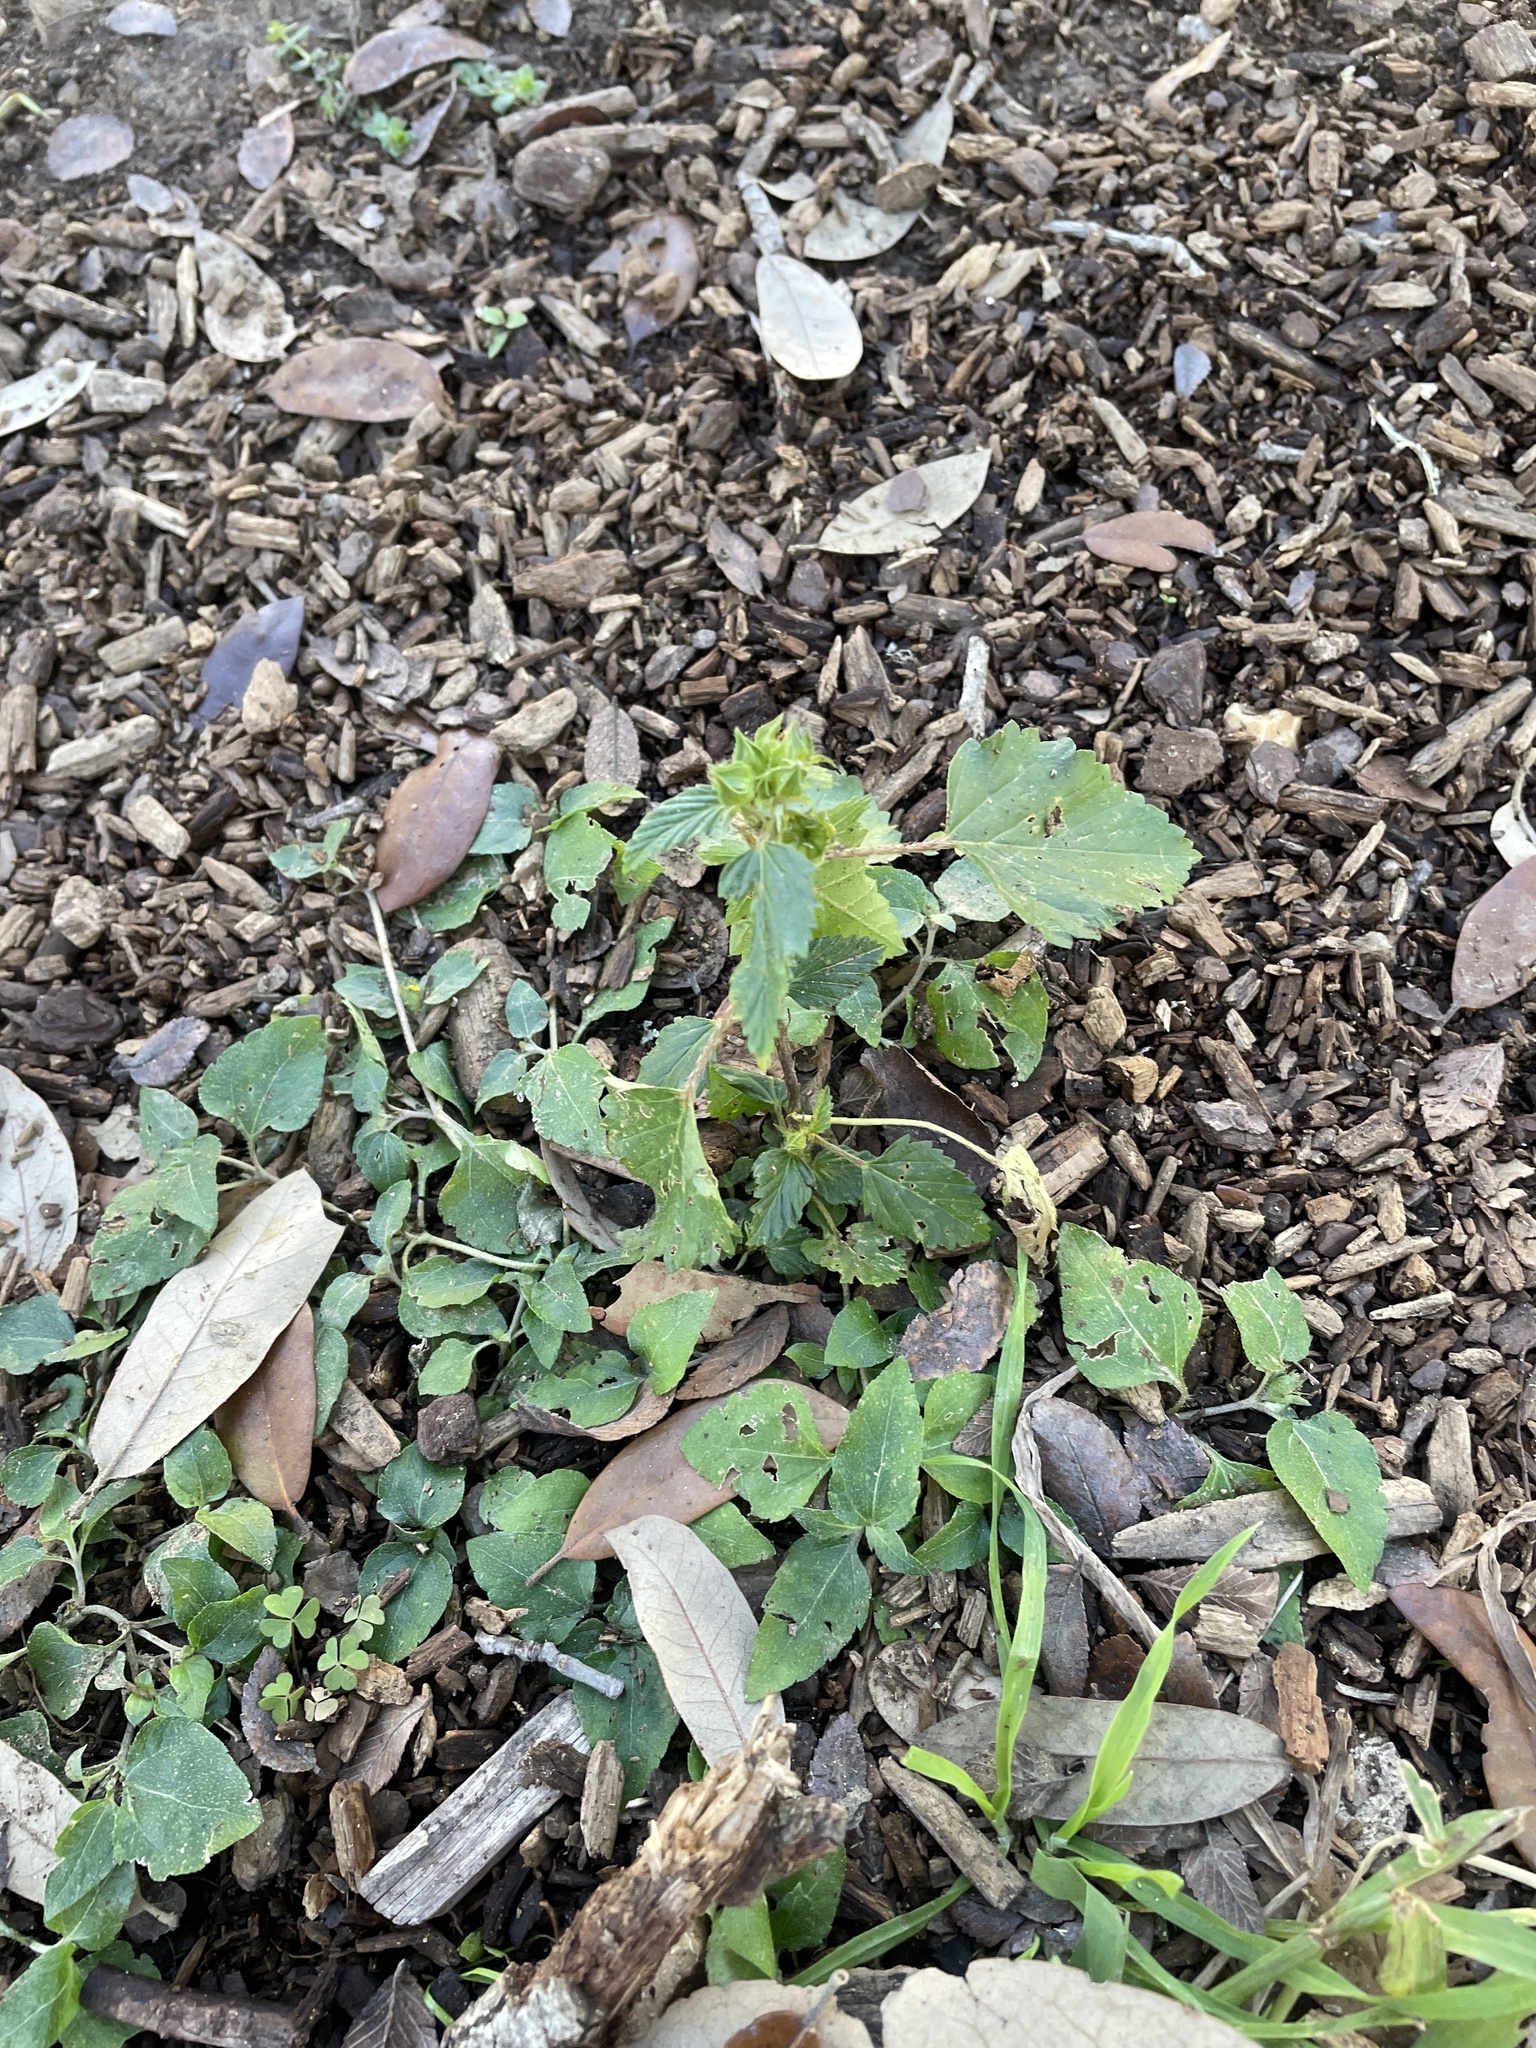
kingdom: Plantae
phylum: Tracheophyta
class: Magnoliopsida
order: Malvales
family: Malvaceae
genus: Malvastrum
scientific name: Malvastrum coromandelianum
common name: Threelobe false mallow
